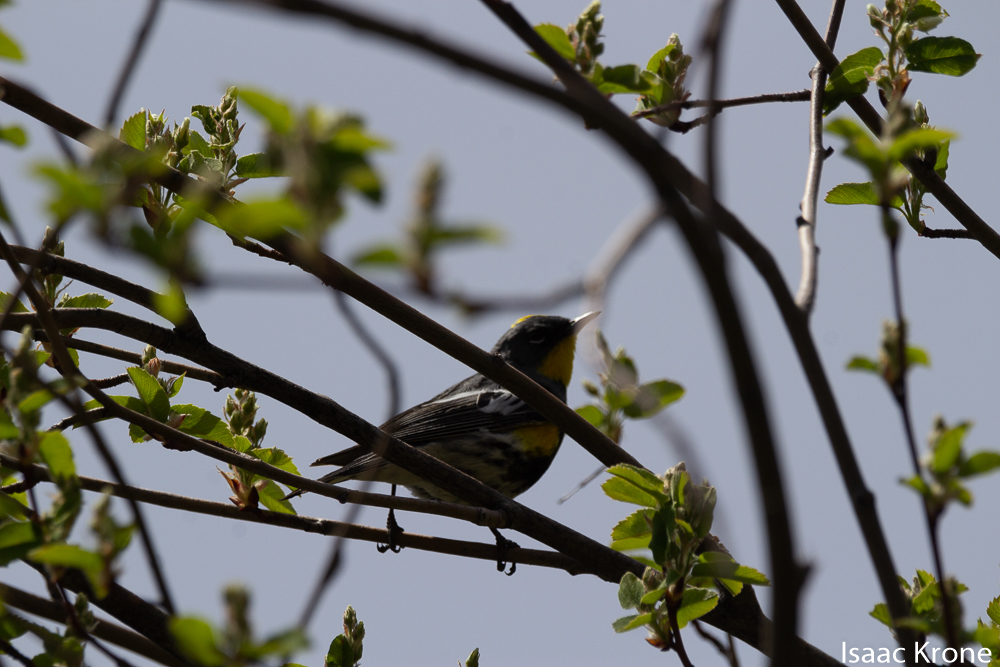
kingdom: Animalia
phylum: Chordata
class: Aves
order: Passeriformes
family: Parulidae
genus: Setophaga
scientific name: Setophaga coronata
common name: Myrtle warbler
